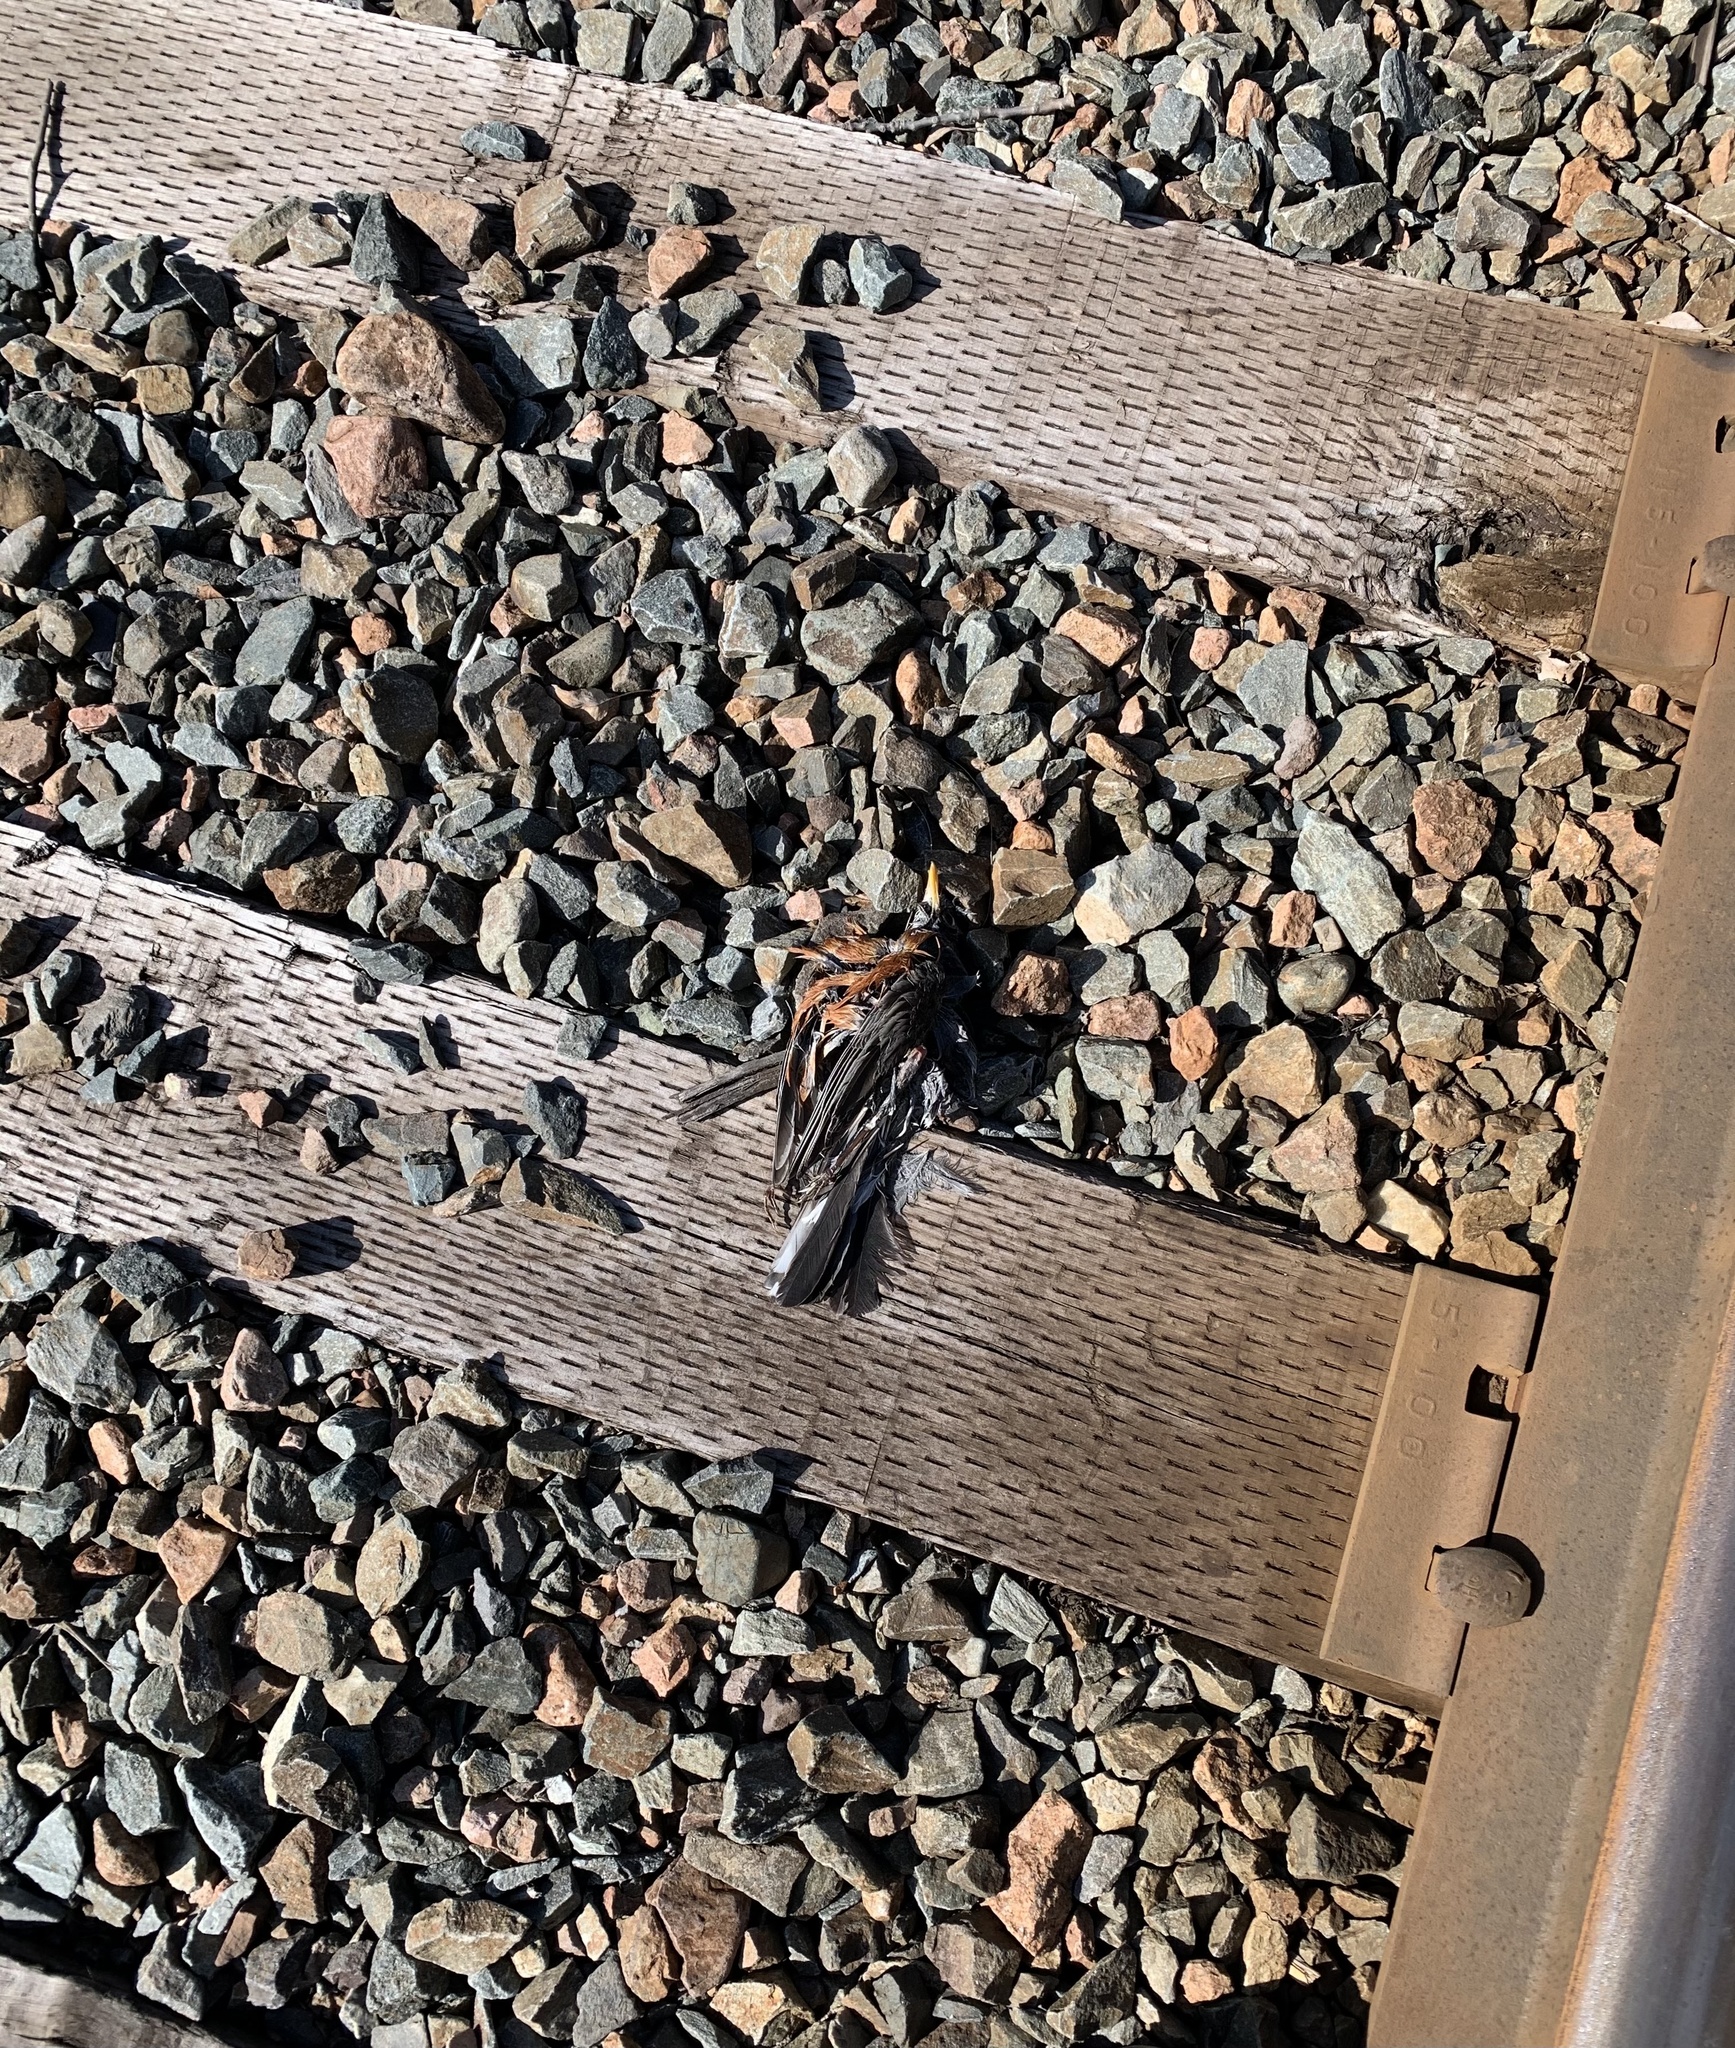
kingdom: Animalia
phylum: Chordata
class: Aves
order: Passeriformes
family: Turdidae
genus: Turdus
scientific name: Turdus migratorius
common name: American robin
